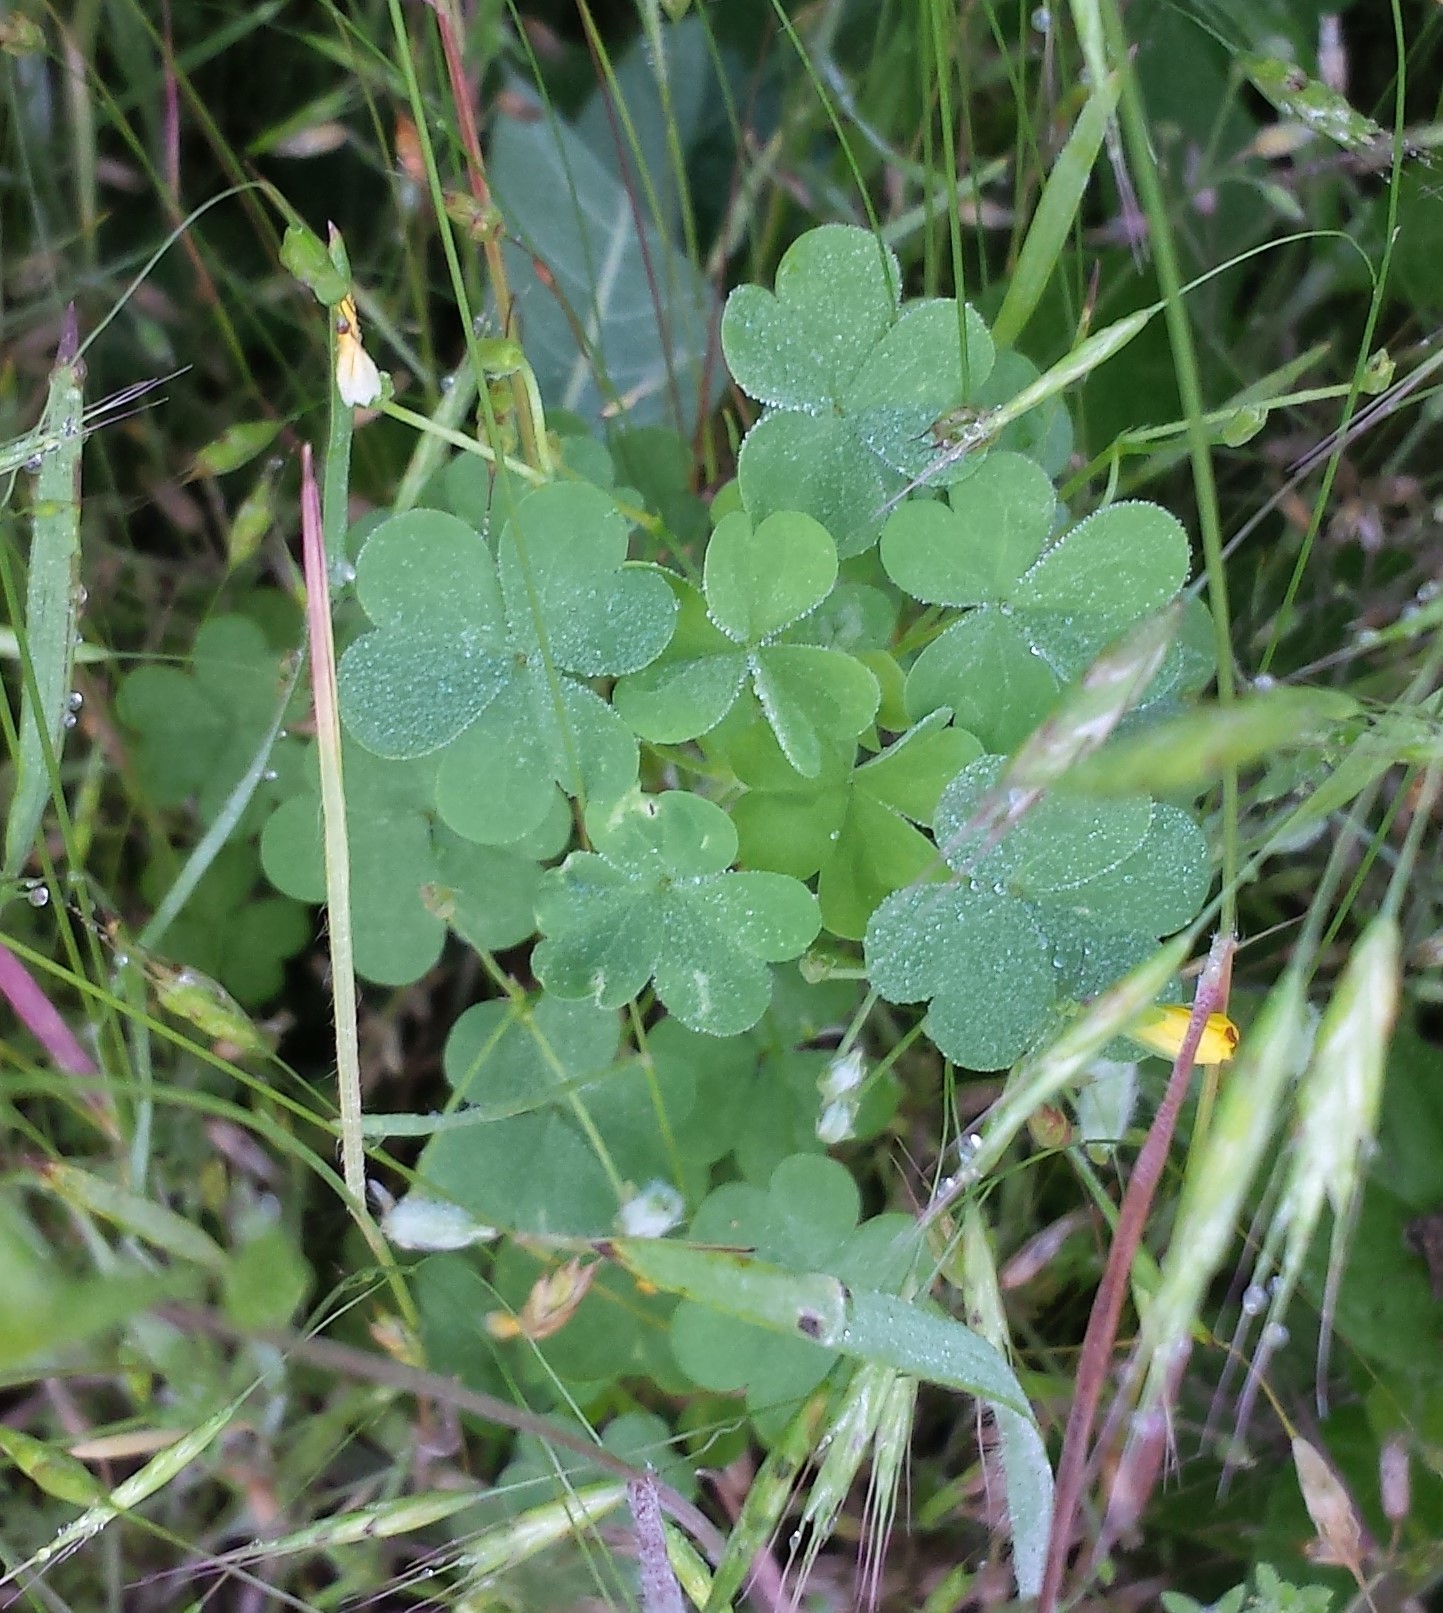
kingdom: Plantae
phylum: Tracheophyta
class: Magnoliopsida
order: Oxalidales
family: Oxalidaceae
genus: Oxalis
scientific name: Oxalis dillenii
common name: Sussex yellow-sorrel
